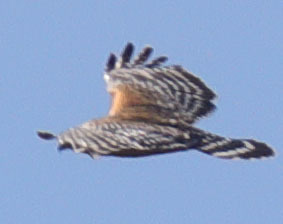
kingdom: Animalia
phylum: Chordata
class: Aves
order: Accipitriformes
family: Accipitridae
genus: Buteo
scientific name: Buteo lineatus
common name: Red-shouldered hawk
